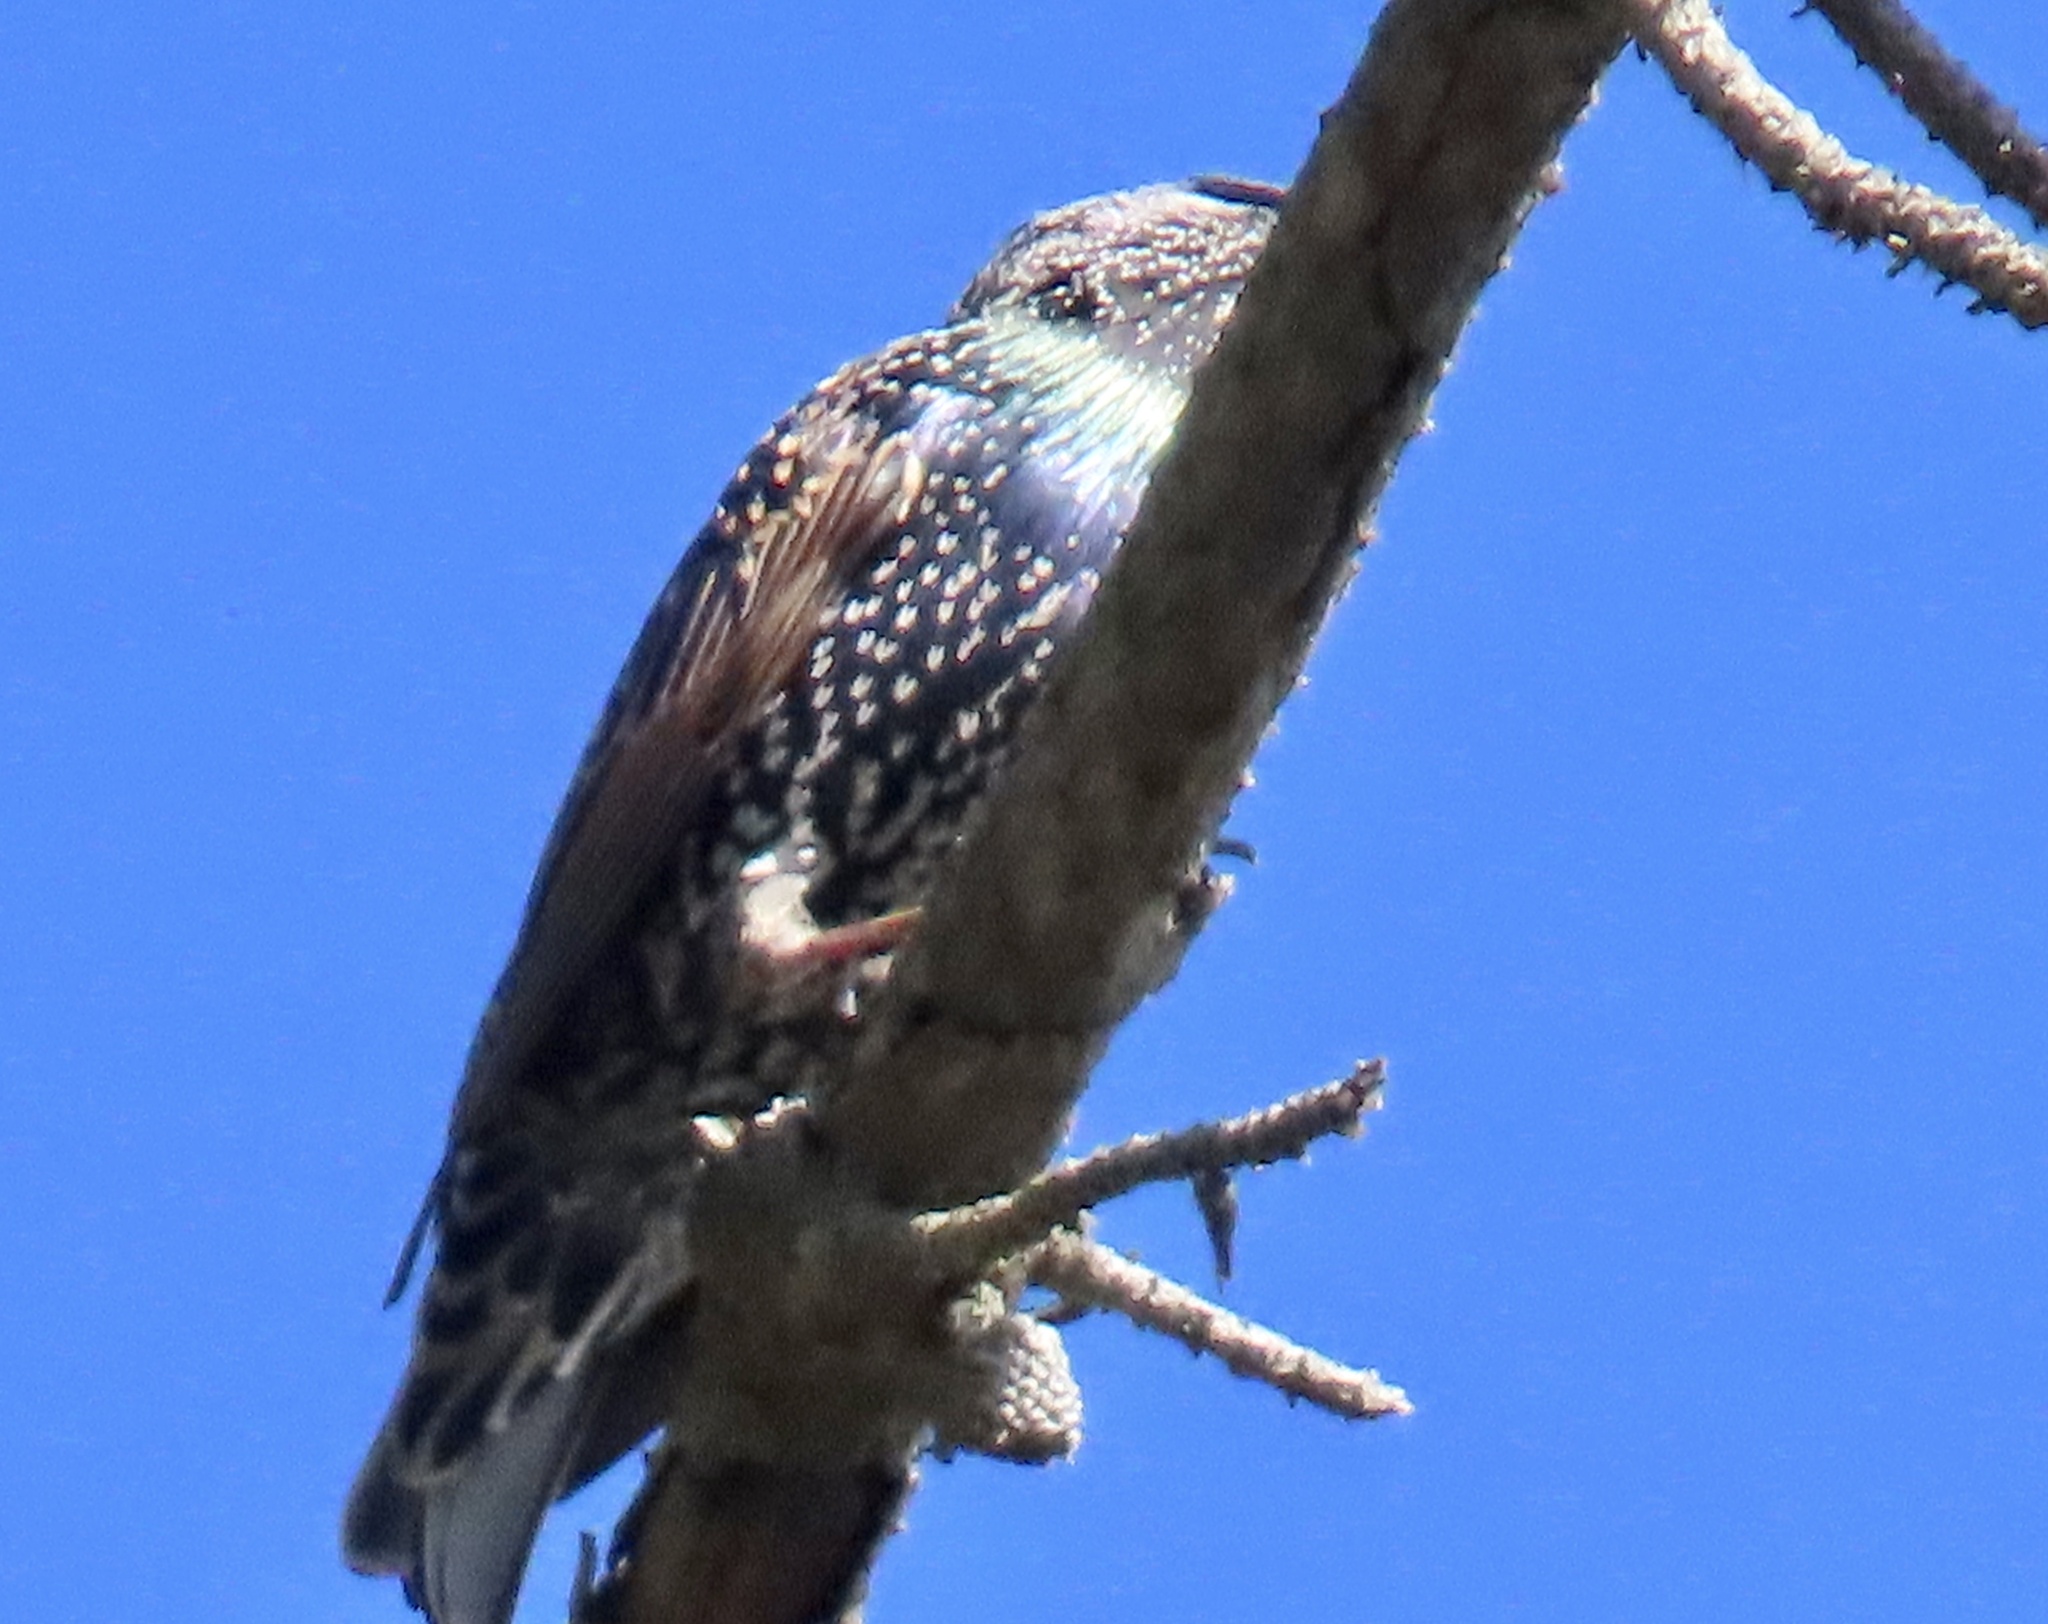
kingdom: Animalia
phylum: Chordata
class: Aves
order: Passeriformes
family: Sturnidae
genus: Sturnus
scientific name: Sturnus vulgaris
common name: Common starling
